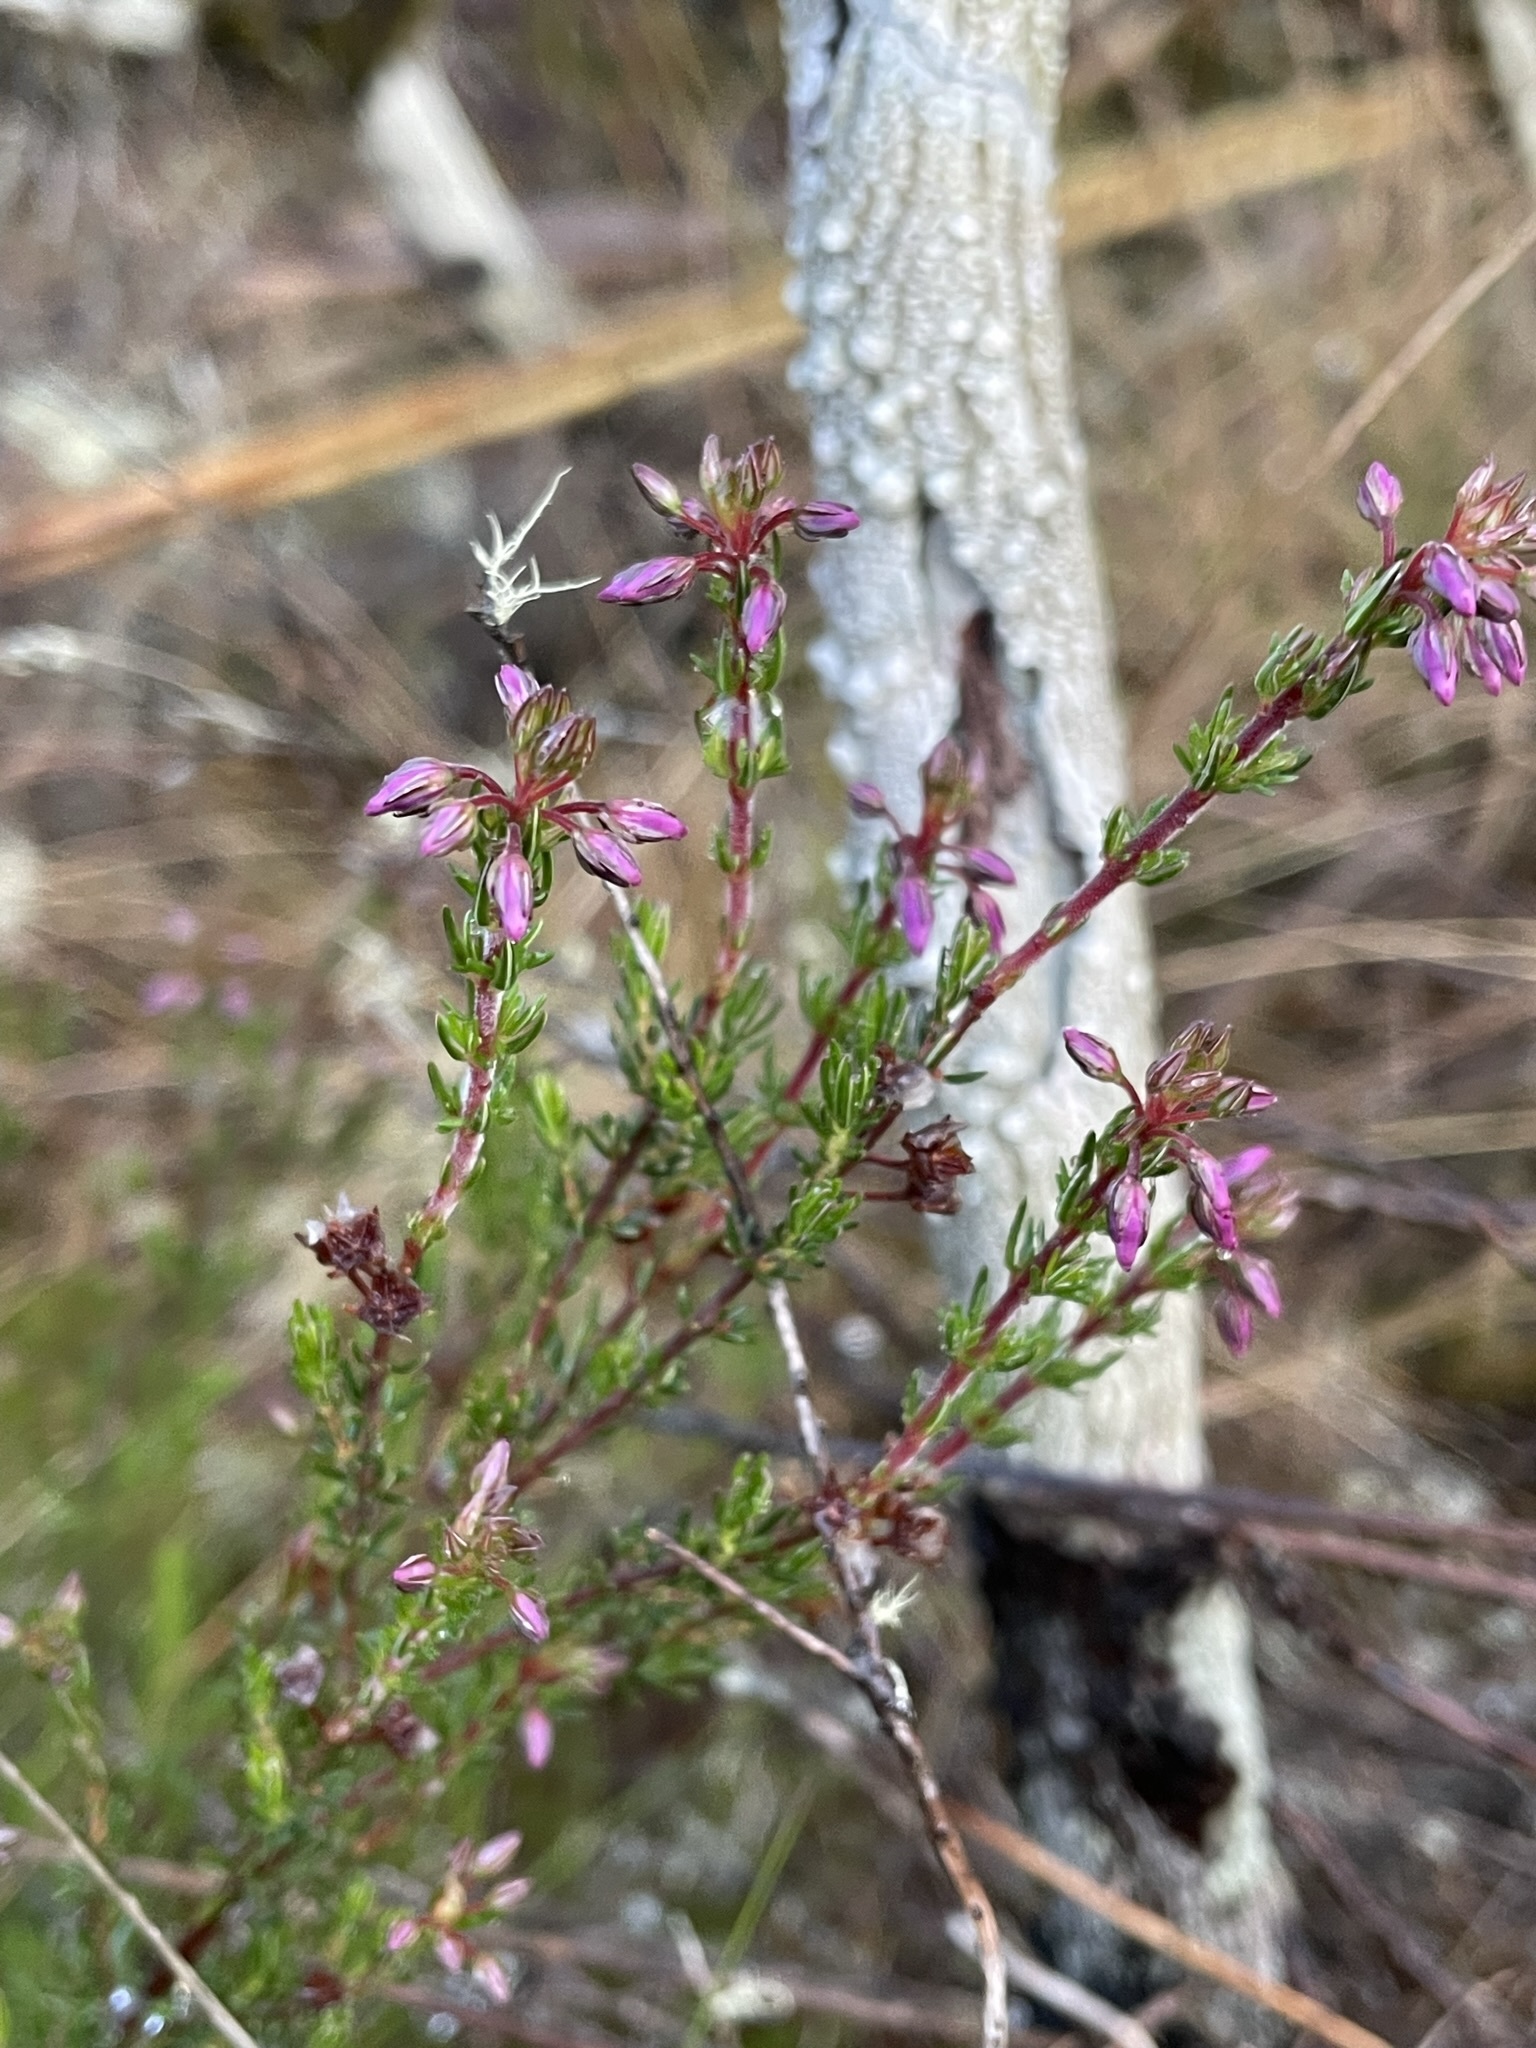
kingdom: Plantae
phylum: Tracheophyta
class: Magnoliopsida
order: Ericales
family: Ericaceae
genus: Calluna
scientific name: Calluna vulgaris
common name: Heather
